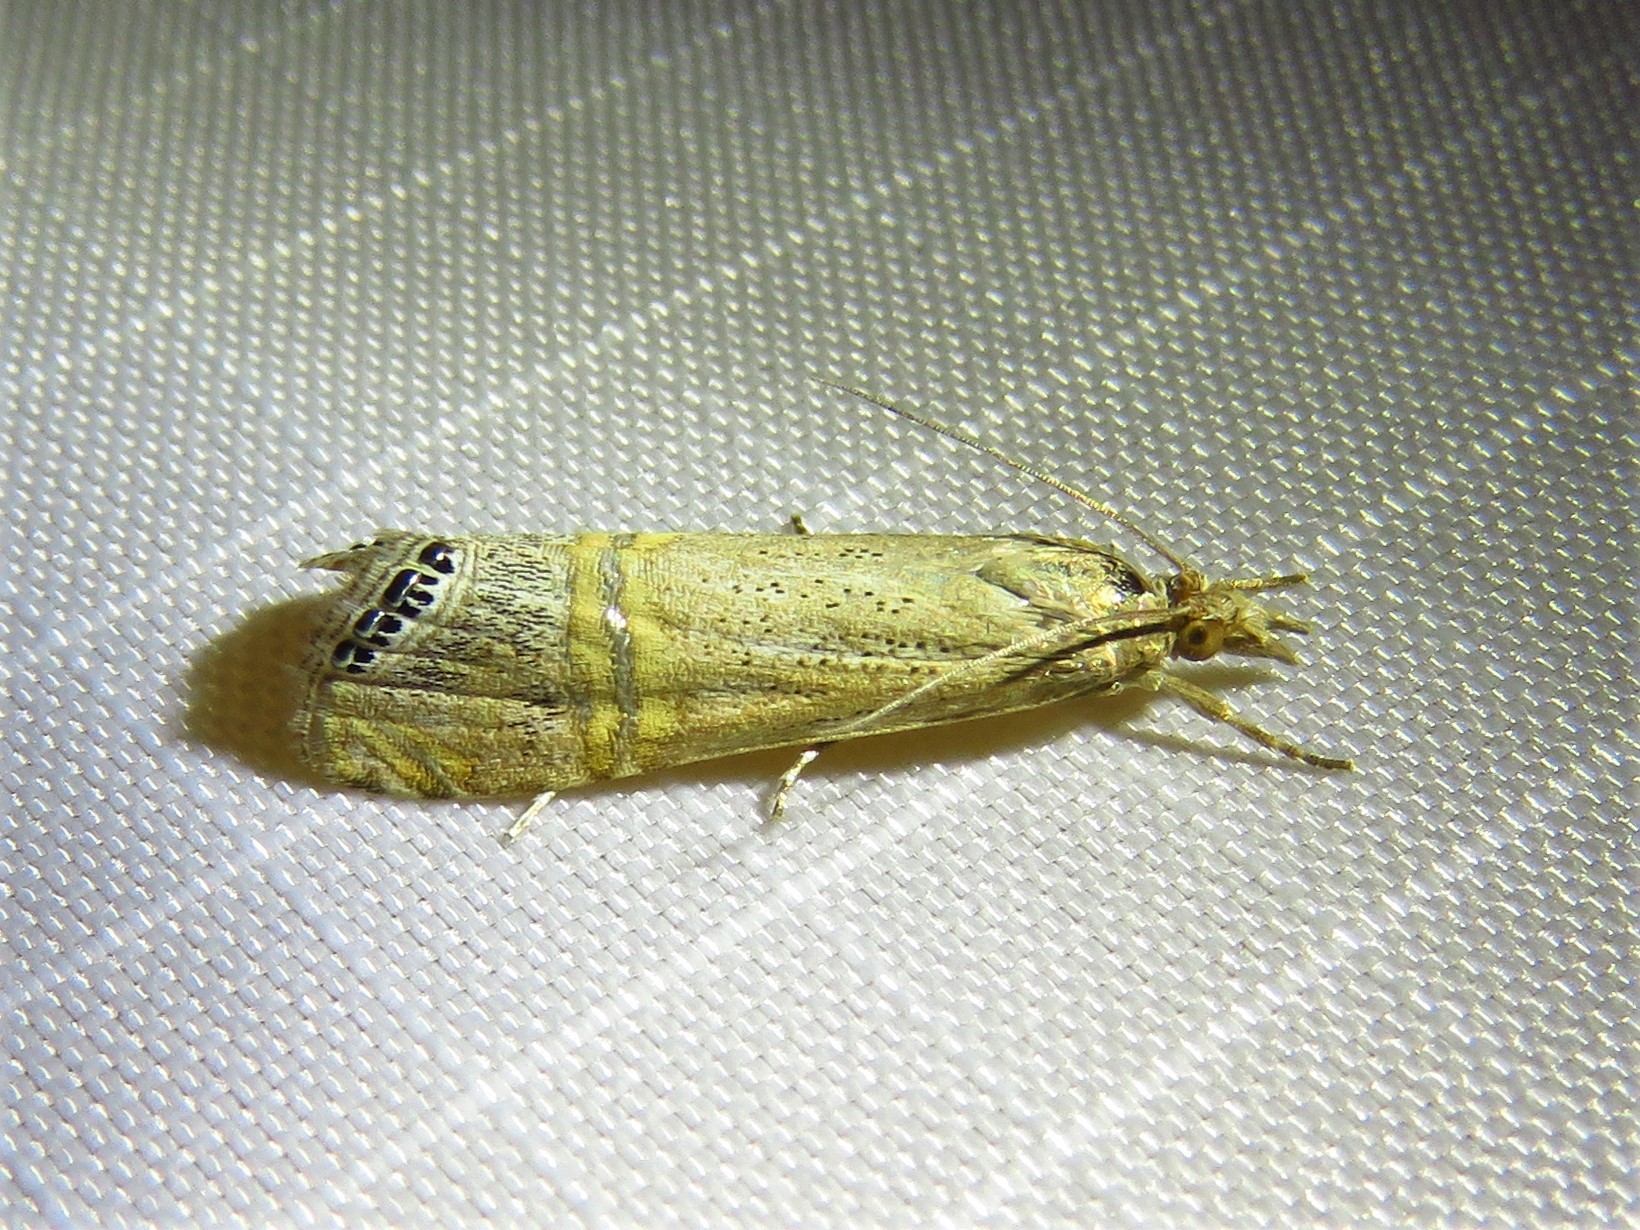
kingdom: Animalia
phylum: Arthropoda
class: Insecta
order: Lepidoptera
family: Crambidae
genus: Euchromius
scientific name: Euchromius ocellea
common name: Necklace veneer moth
